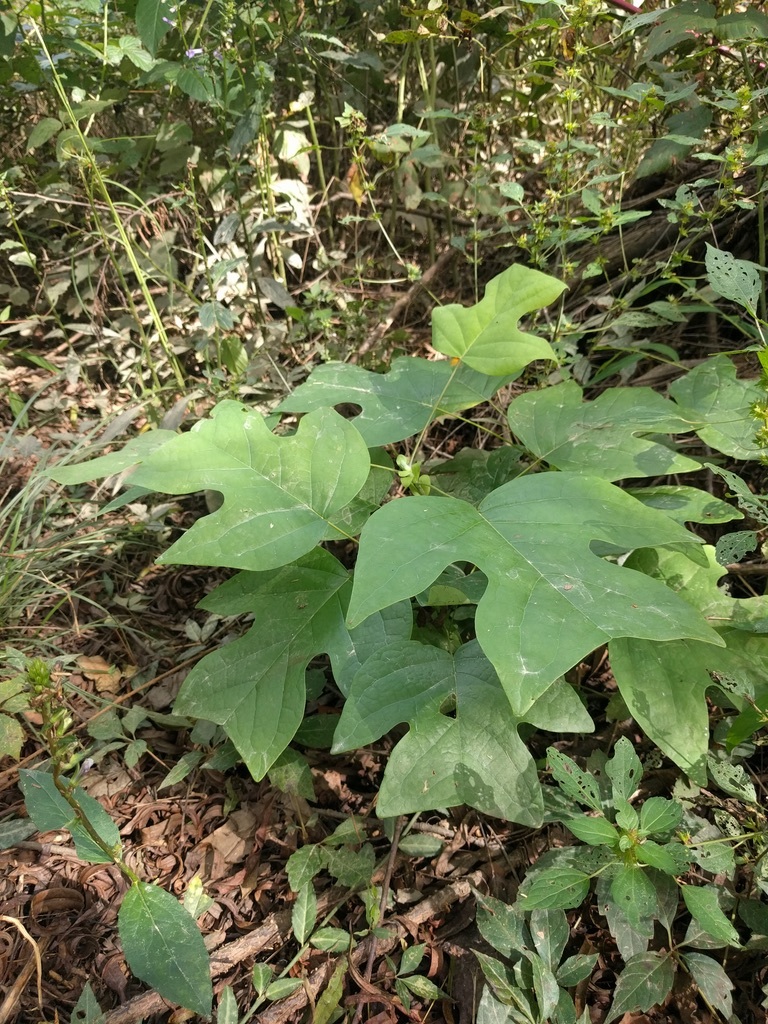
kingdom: Plantae
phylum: Tracheophyta
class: Magnoliopsida
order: Magnoliales
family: Magnoliaceae
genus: Liriodendron
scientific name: Liriodendron tulipifera
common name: Tulip tree
